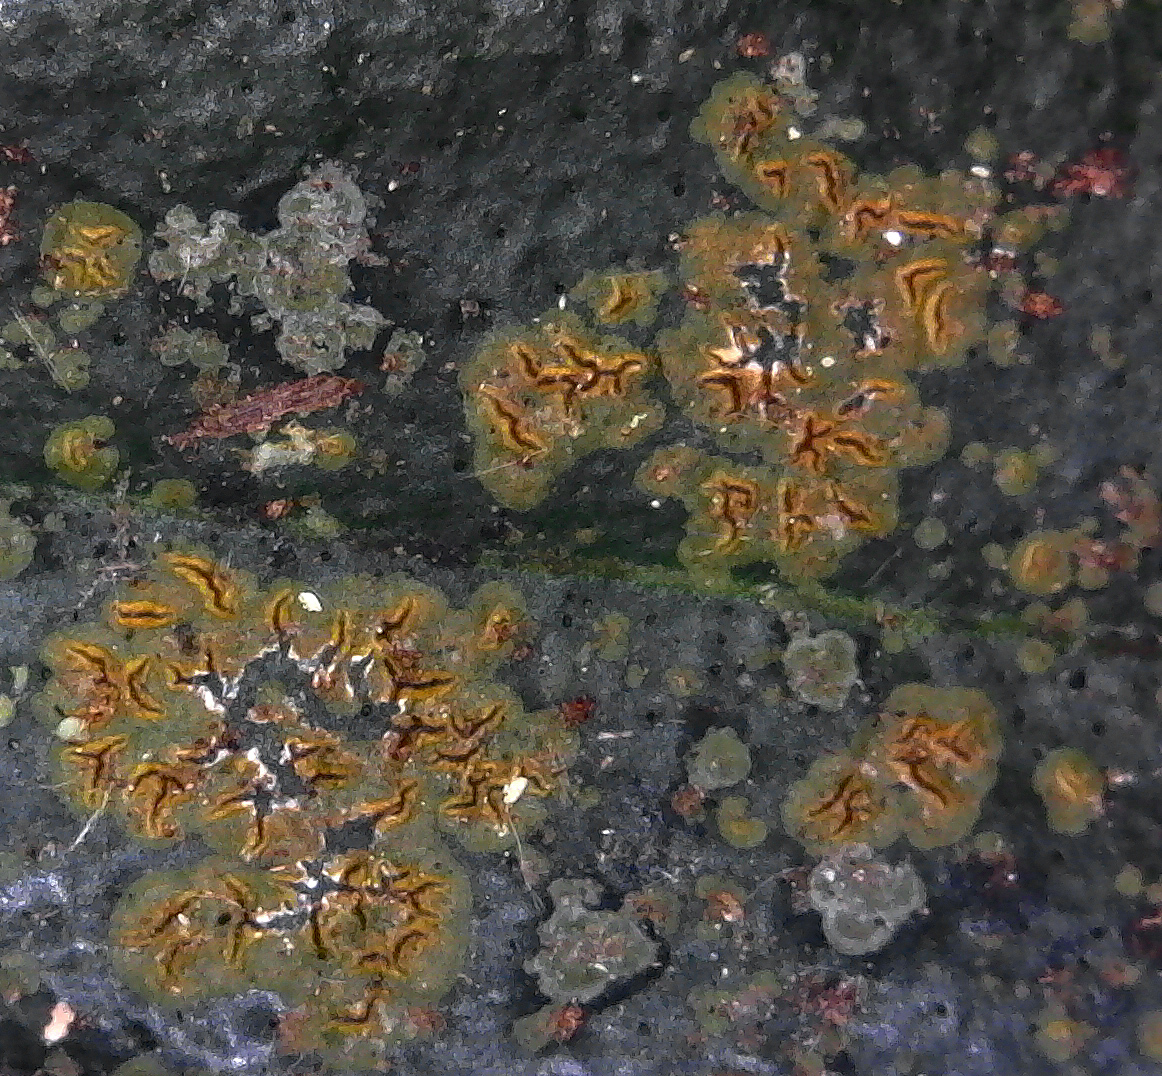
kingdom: Fungi
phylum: Ascomycota
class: Arthoniomycetes
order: Arthoniales
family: Roccellaceae
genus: Enterographa
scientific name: Enterographa bella
